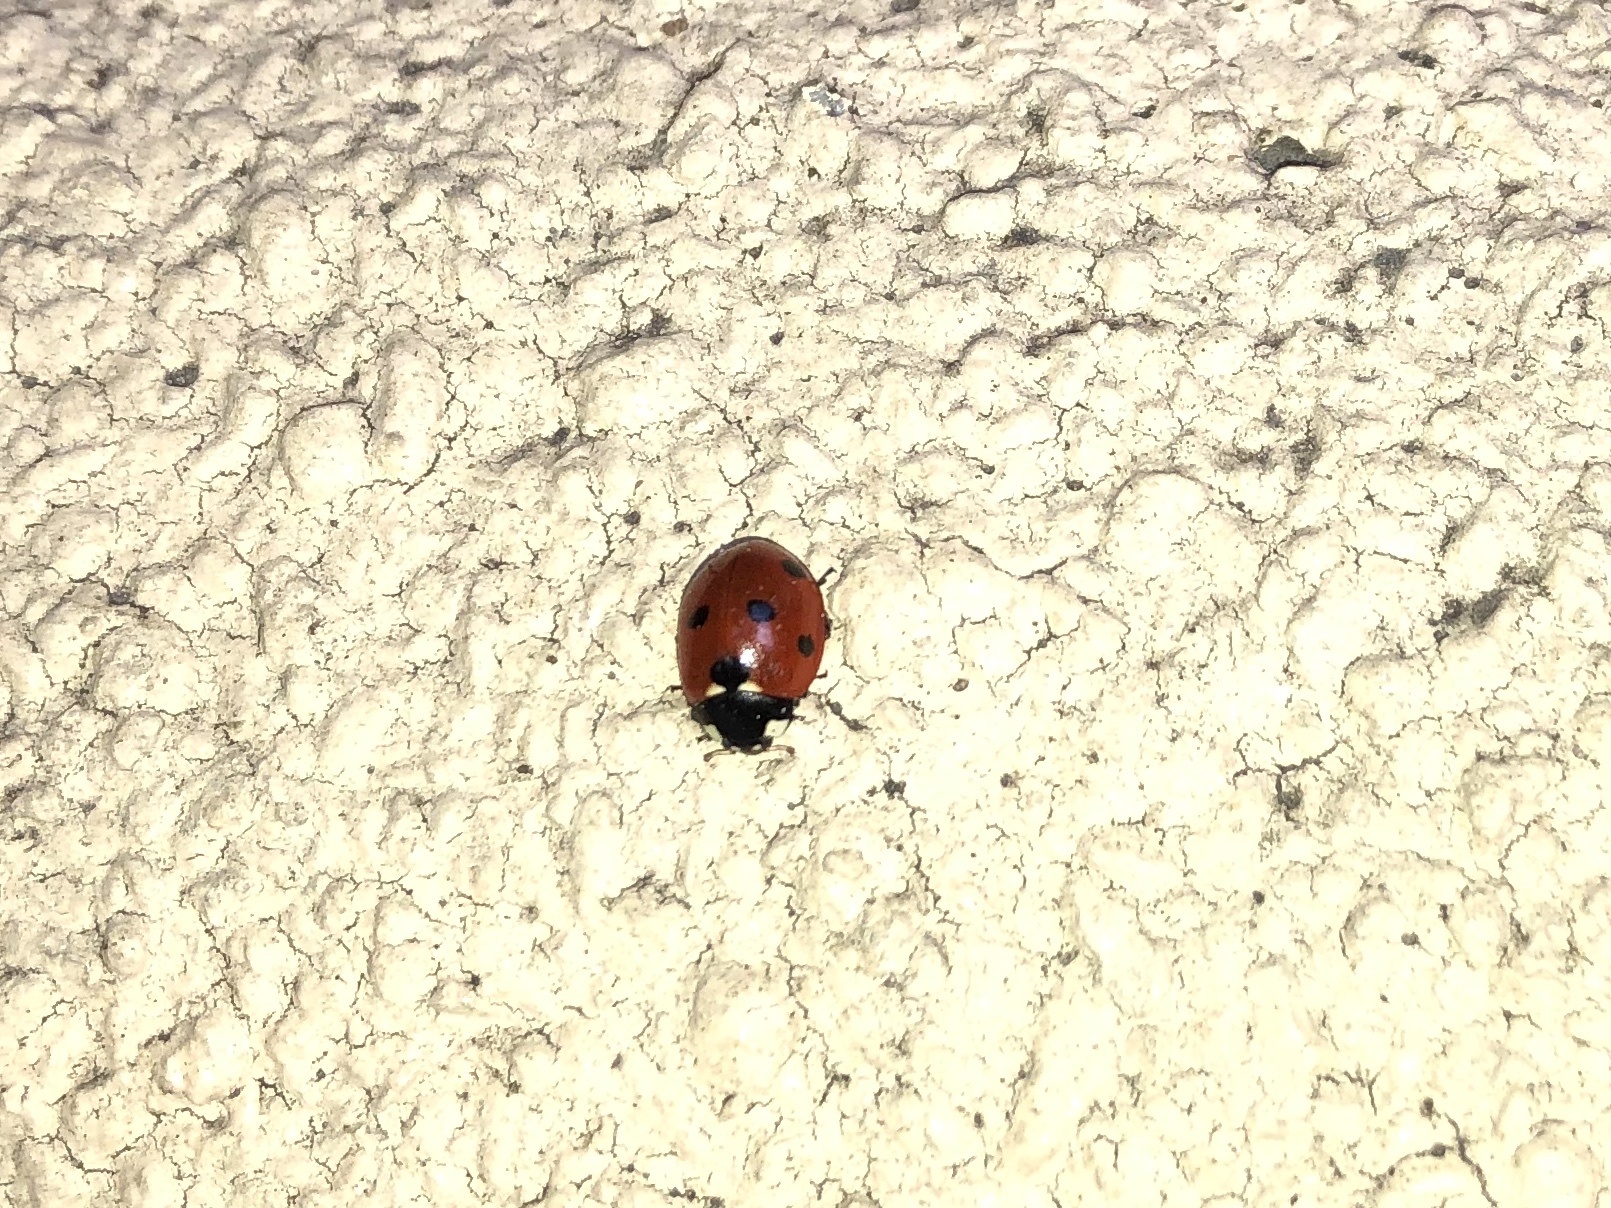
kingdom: Animalia
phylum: Arthropoda
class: Insecta
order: Coleoptera
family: Coccinellidae
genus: Coccinella
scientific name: Coccinella septempunctata
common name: Sevenspotted lady beetle
